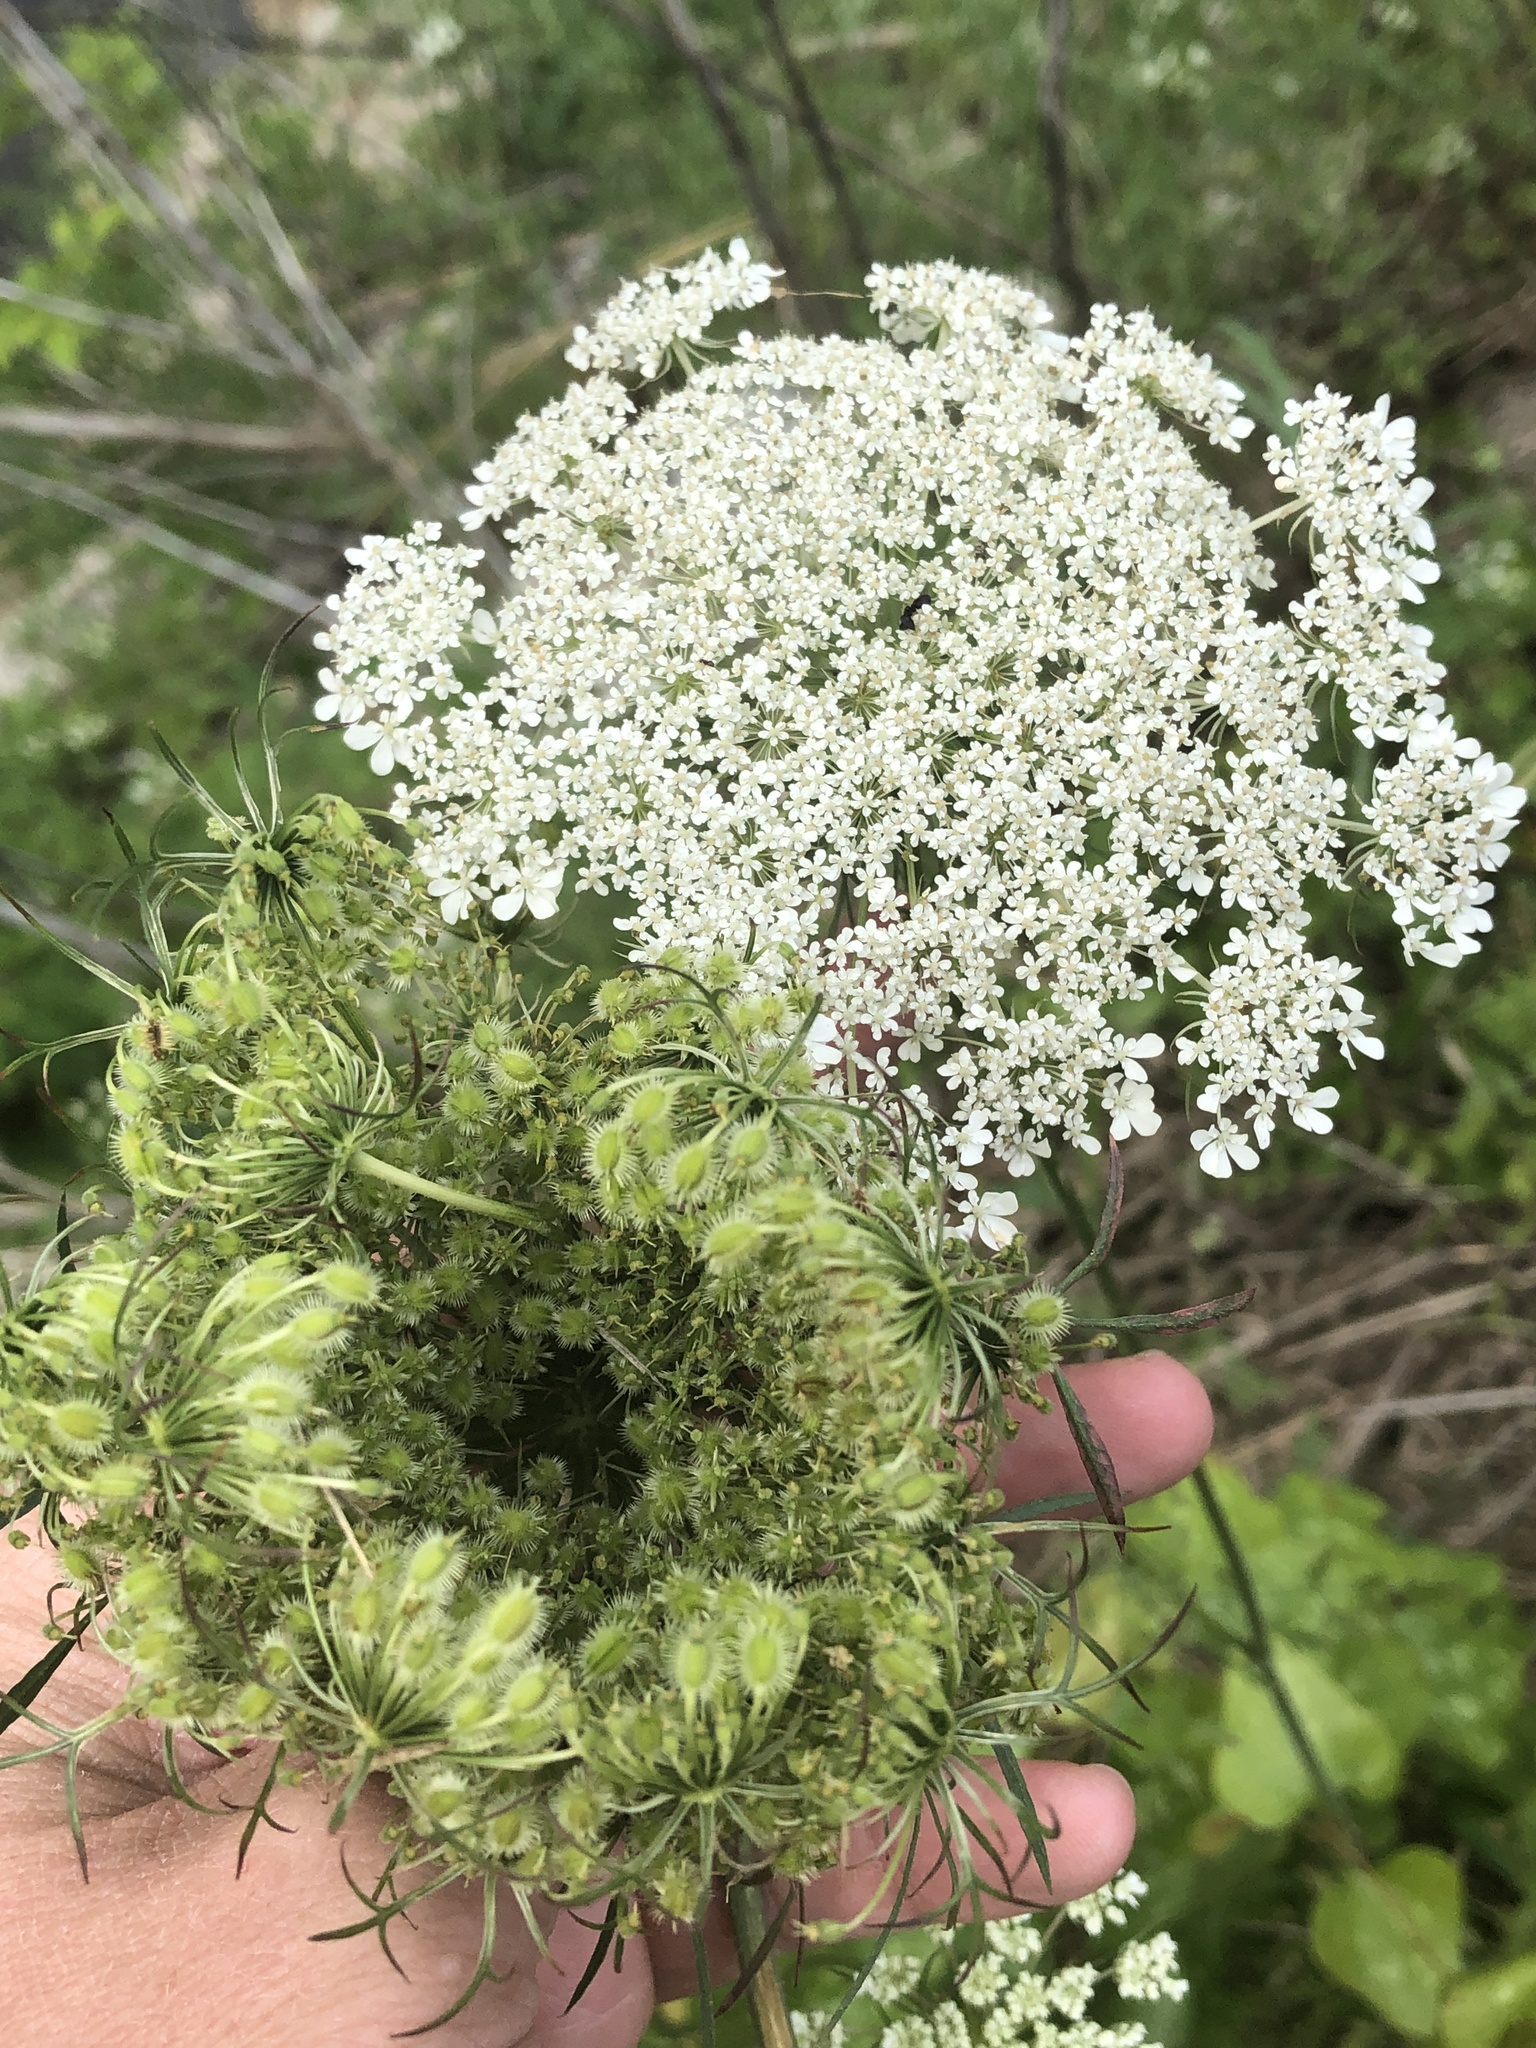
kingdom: Plantae
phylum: Tracheophyta
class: Magnoliopsida
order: Apiales
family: Apiaceae
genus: Daucus
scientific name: Daucus carota
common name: Wild carrot
